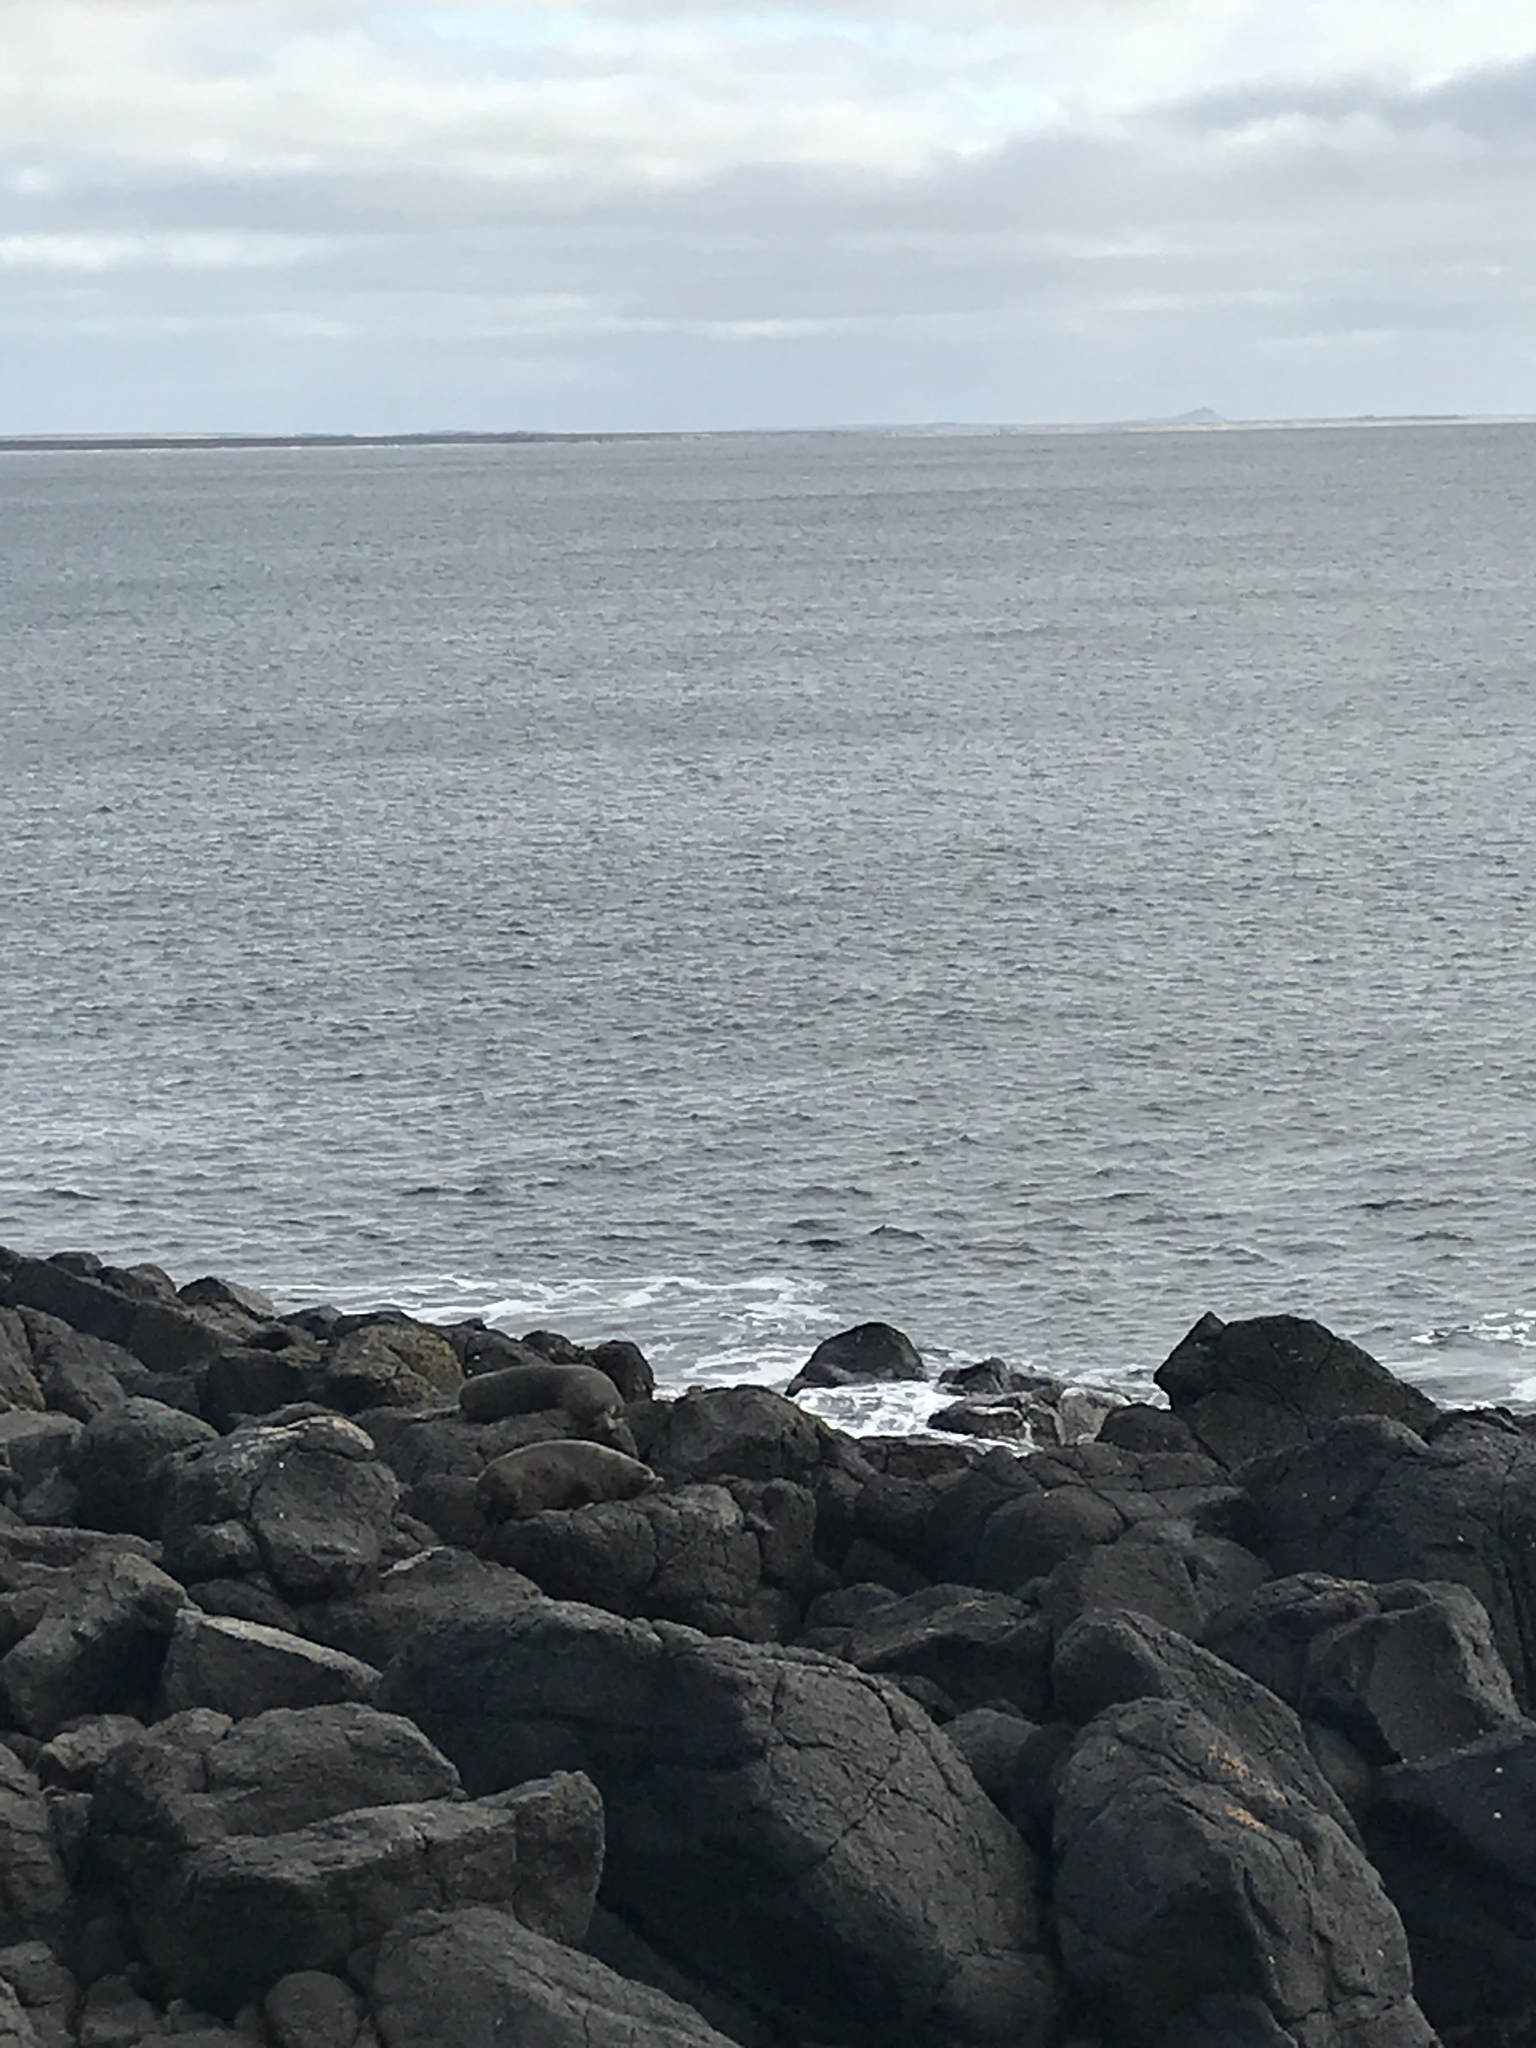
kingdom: Animalia
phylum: Chordata
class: Mammalia
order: Carnivora
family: Otariidae
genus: Arctocephalus
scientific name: Arctocephalus forsteri
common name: New zealand fur seal
